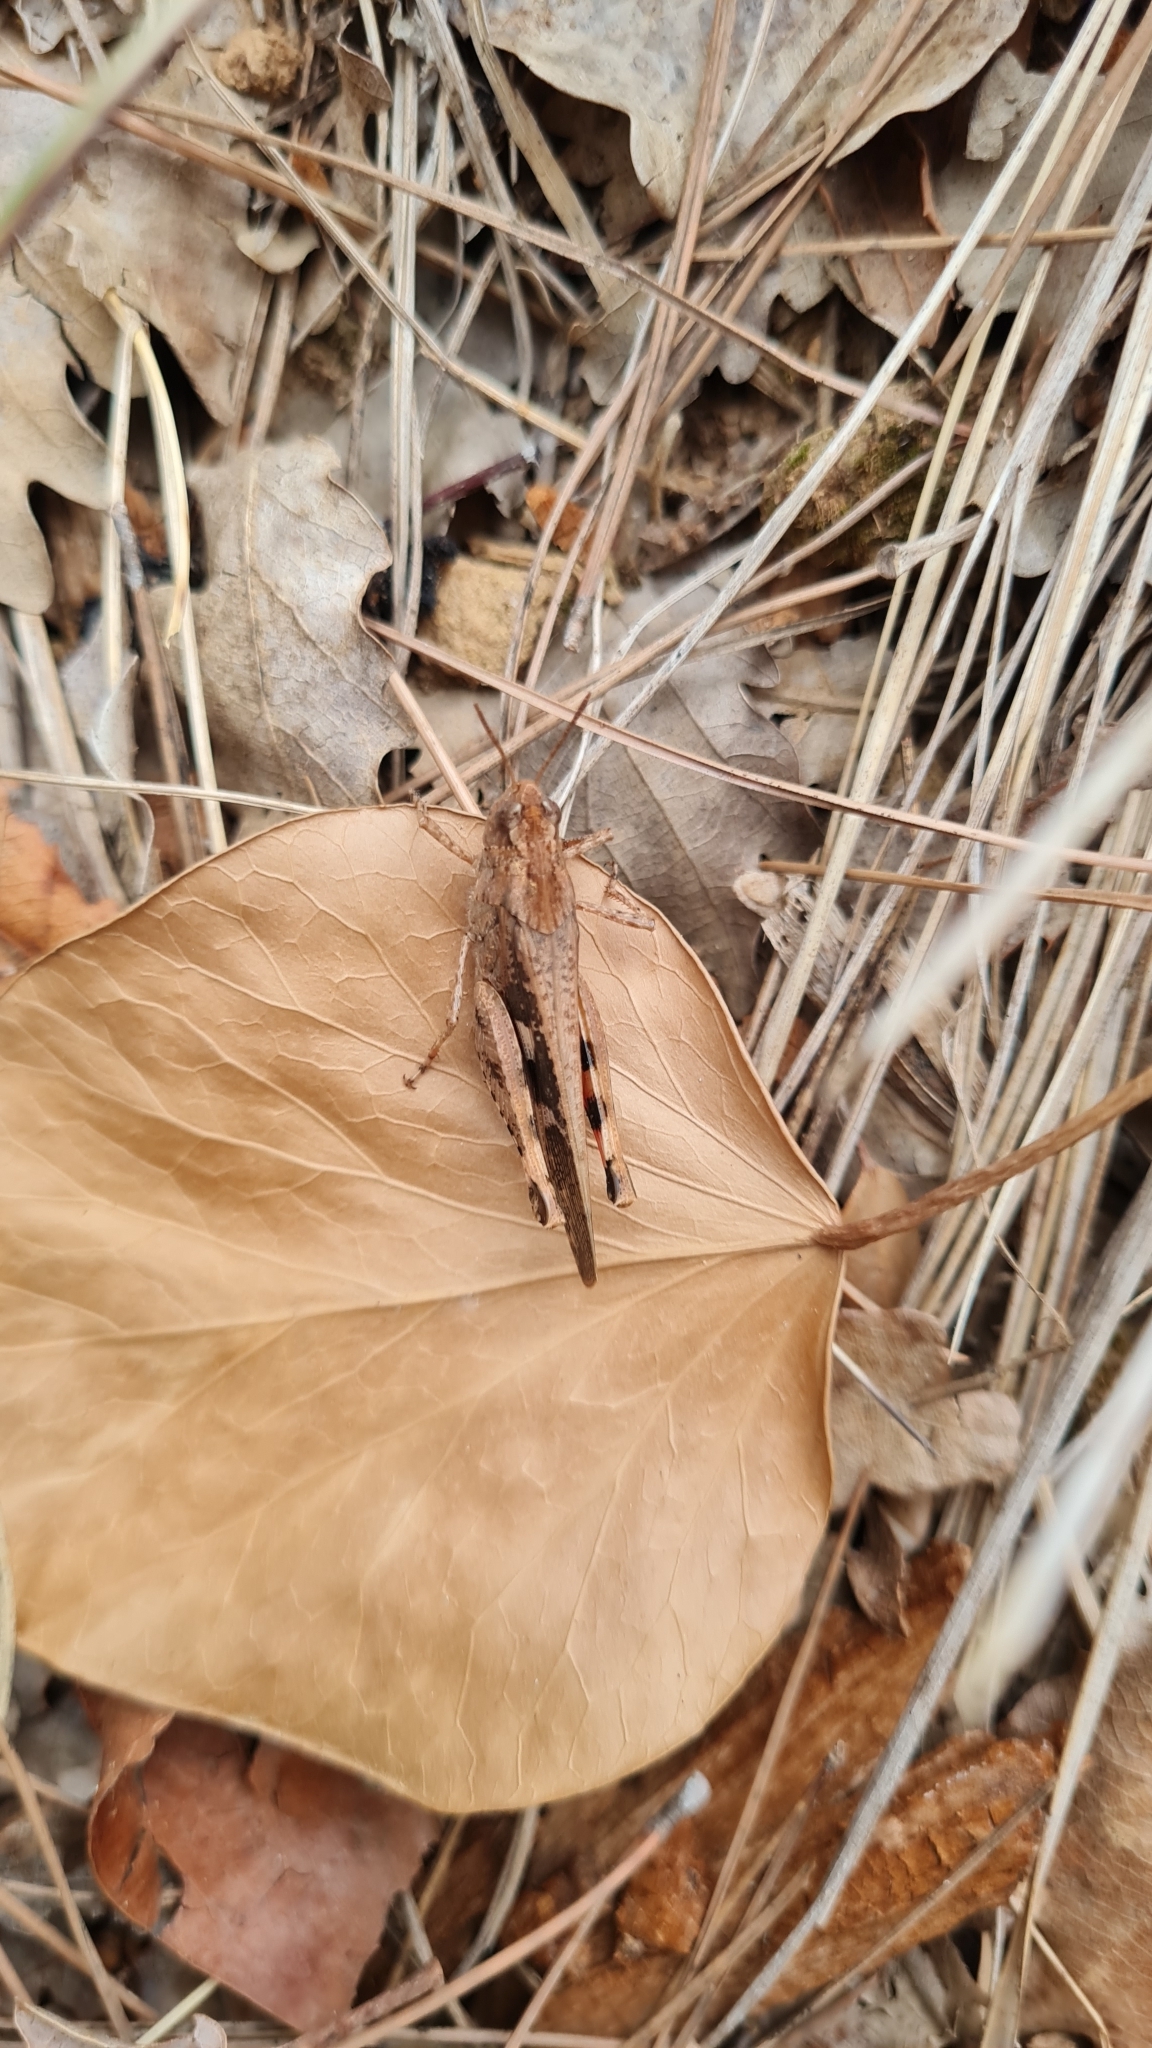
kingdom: Animalia
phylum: Arthropoda
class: Insecta
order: Orthoptera
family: Acrididae
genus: Aiolopus
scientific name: Aiolopus strepens
